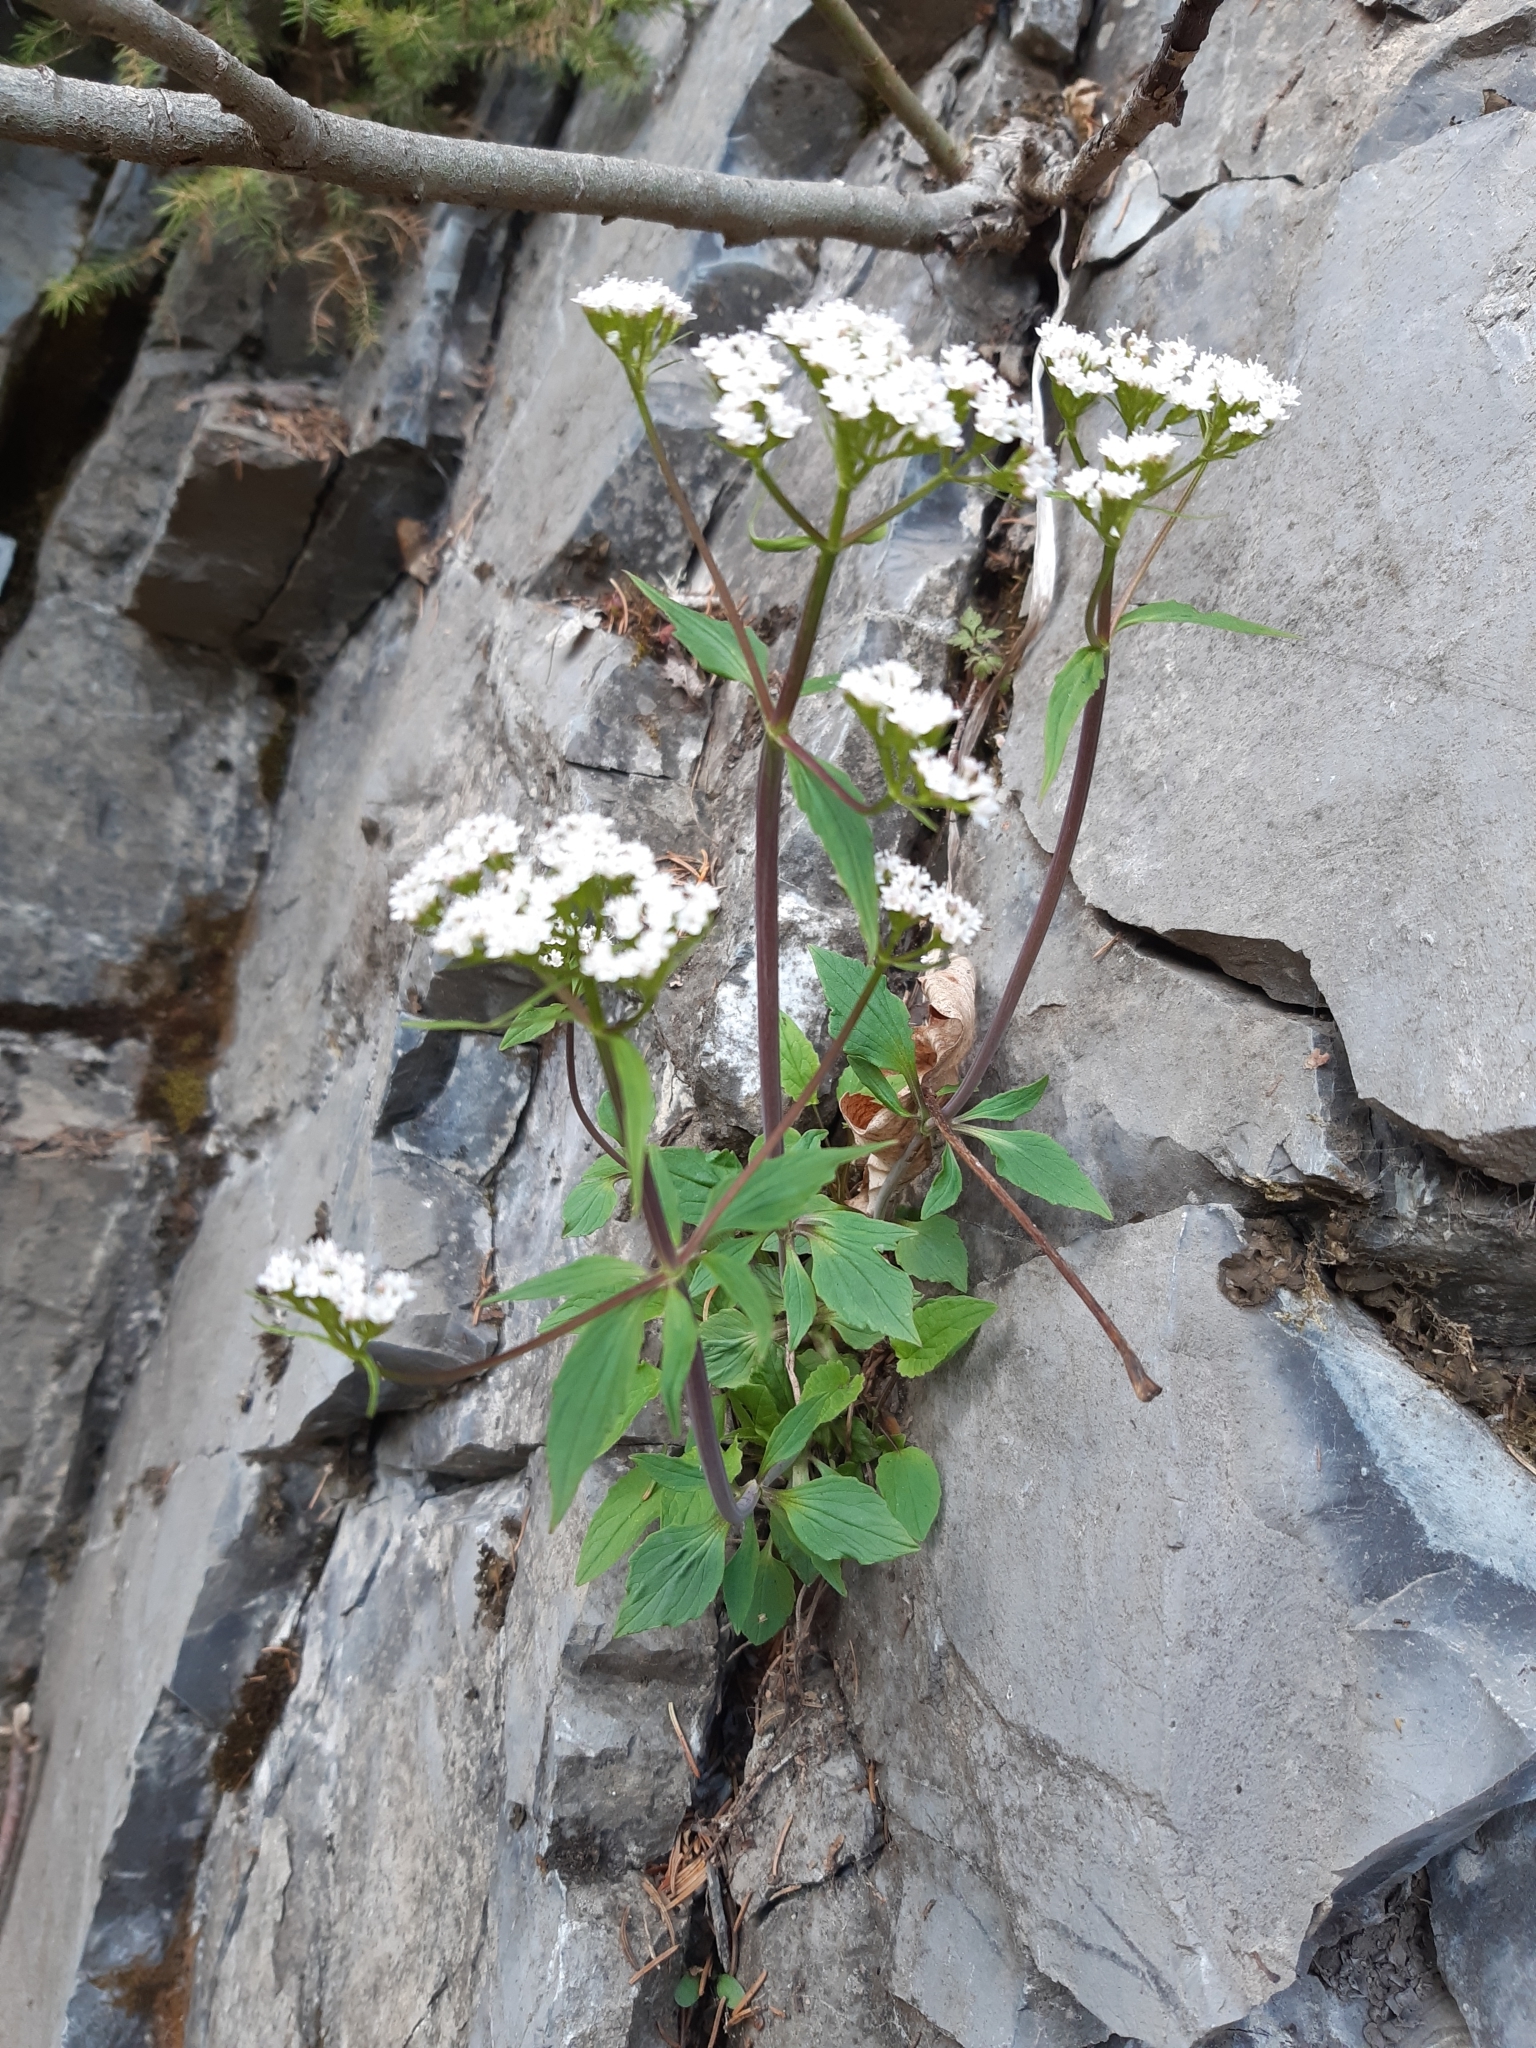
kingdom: Plantae
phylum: Tracheophyta
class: Magnoliopsida
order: Dipsacales
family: Caprifoliaceae
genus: Valeriana
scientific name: Valeriana tripteris
